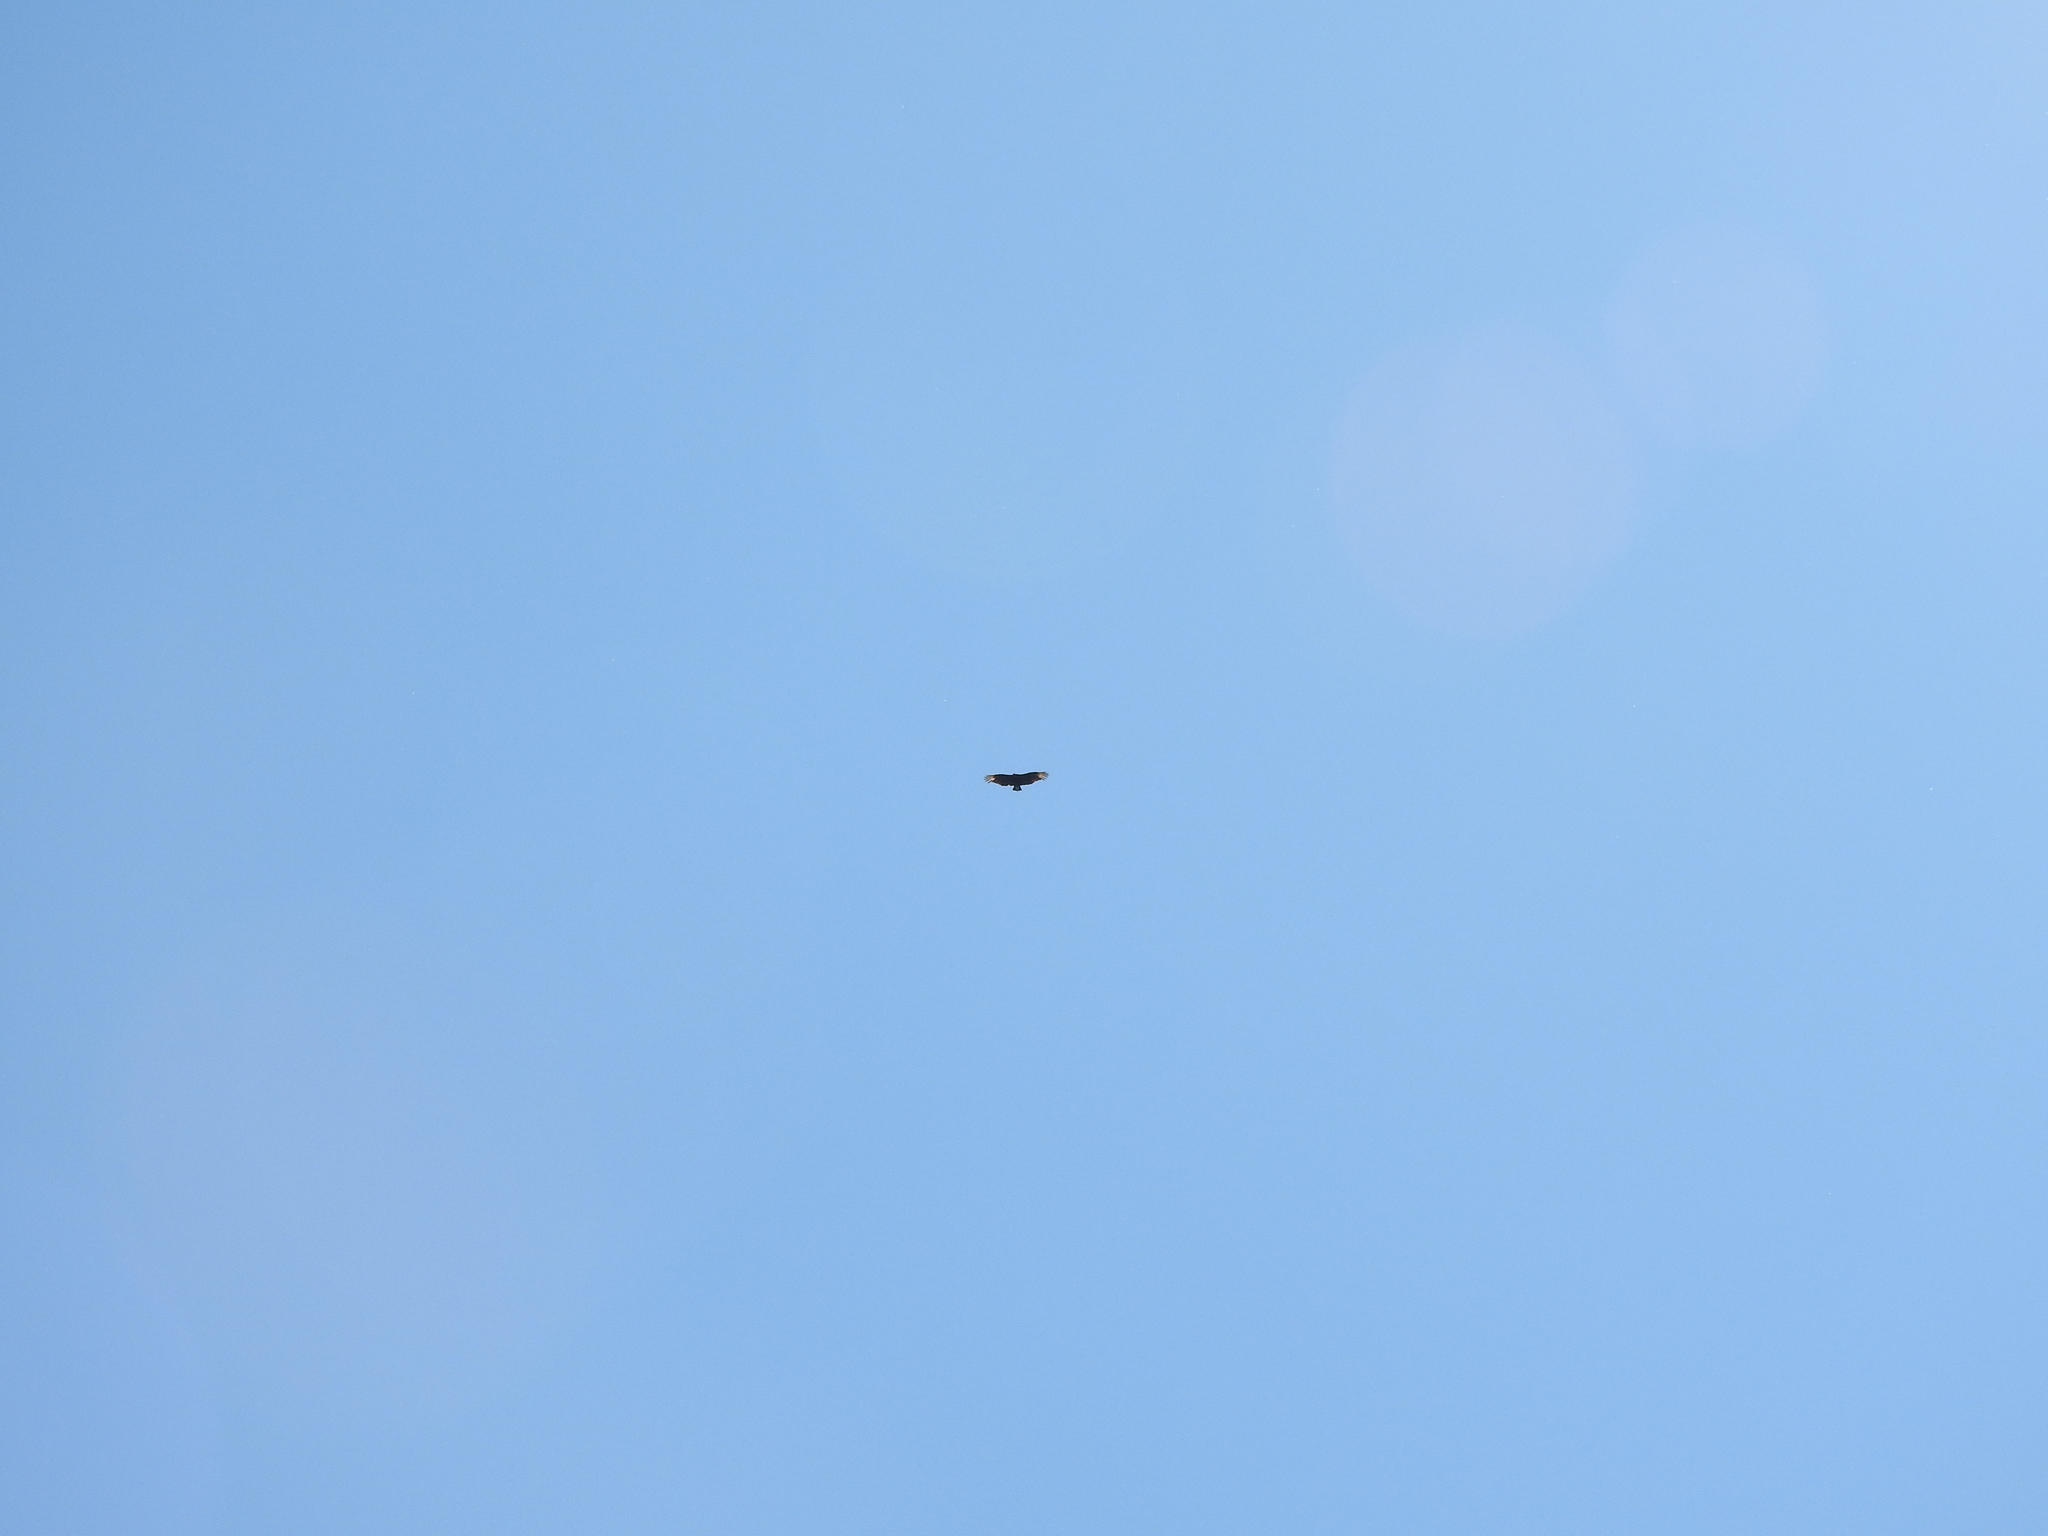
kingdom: Animalia
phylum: Chordata
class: Aves
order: Accipitriformes
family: Cathartidae
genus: Coragyps
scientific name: Coragyps atratus
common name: Black vulture
